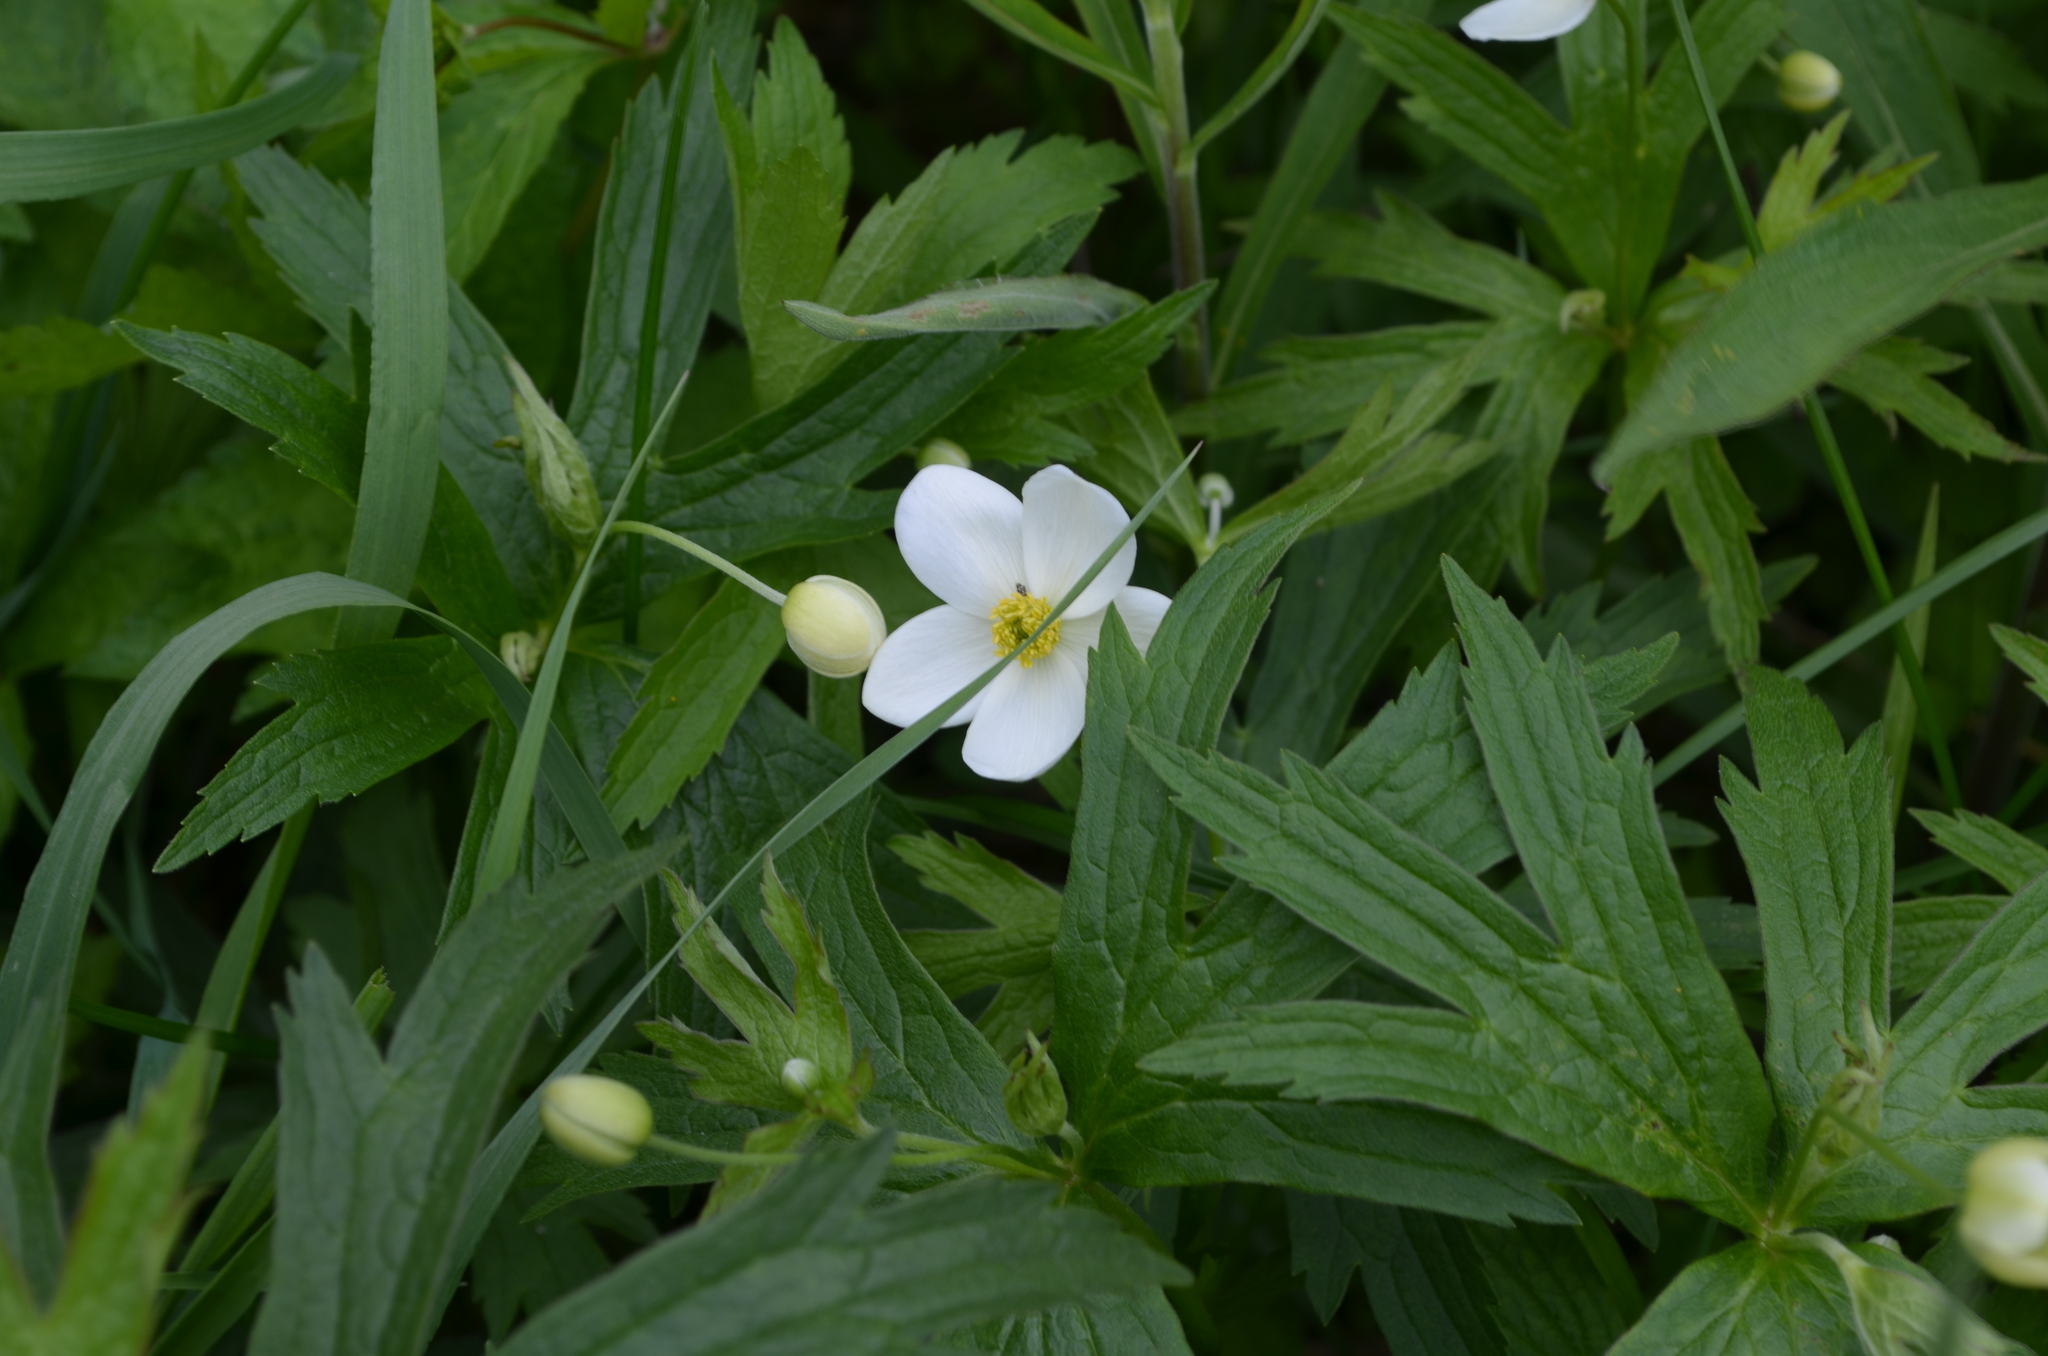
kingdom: Plantae
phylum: Tracheophyta
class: Magnoliopsida
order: Ranunculales
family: Ranunculaceae
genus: Anemonastrum
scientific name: Anemonastrum canadense
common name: Canada anemone
